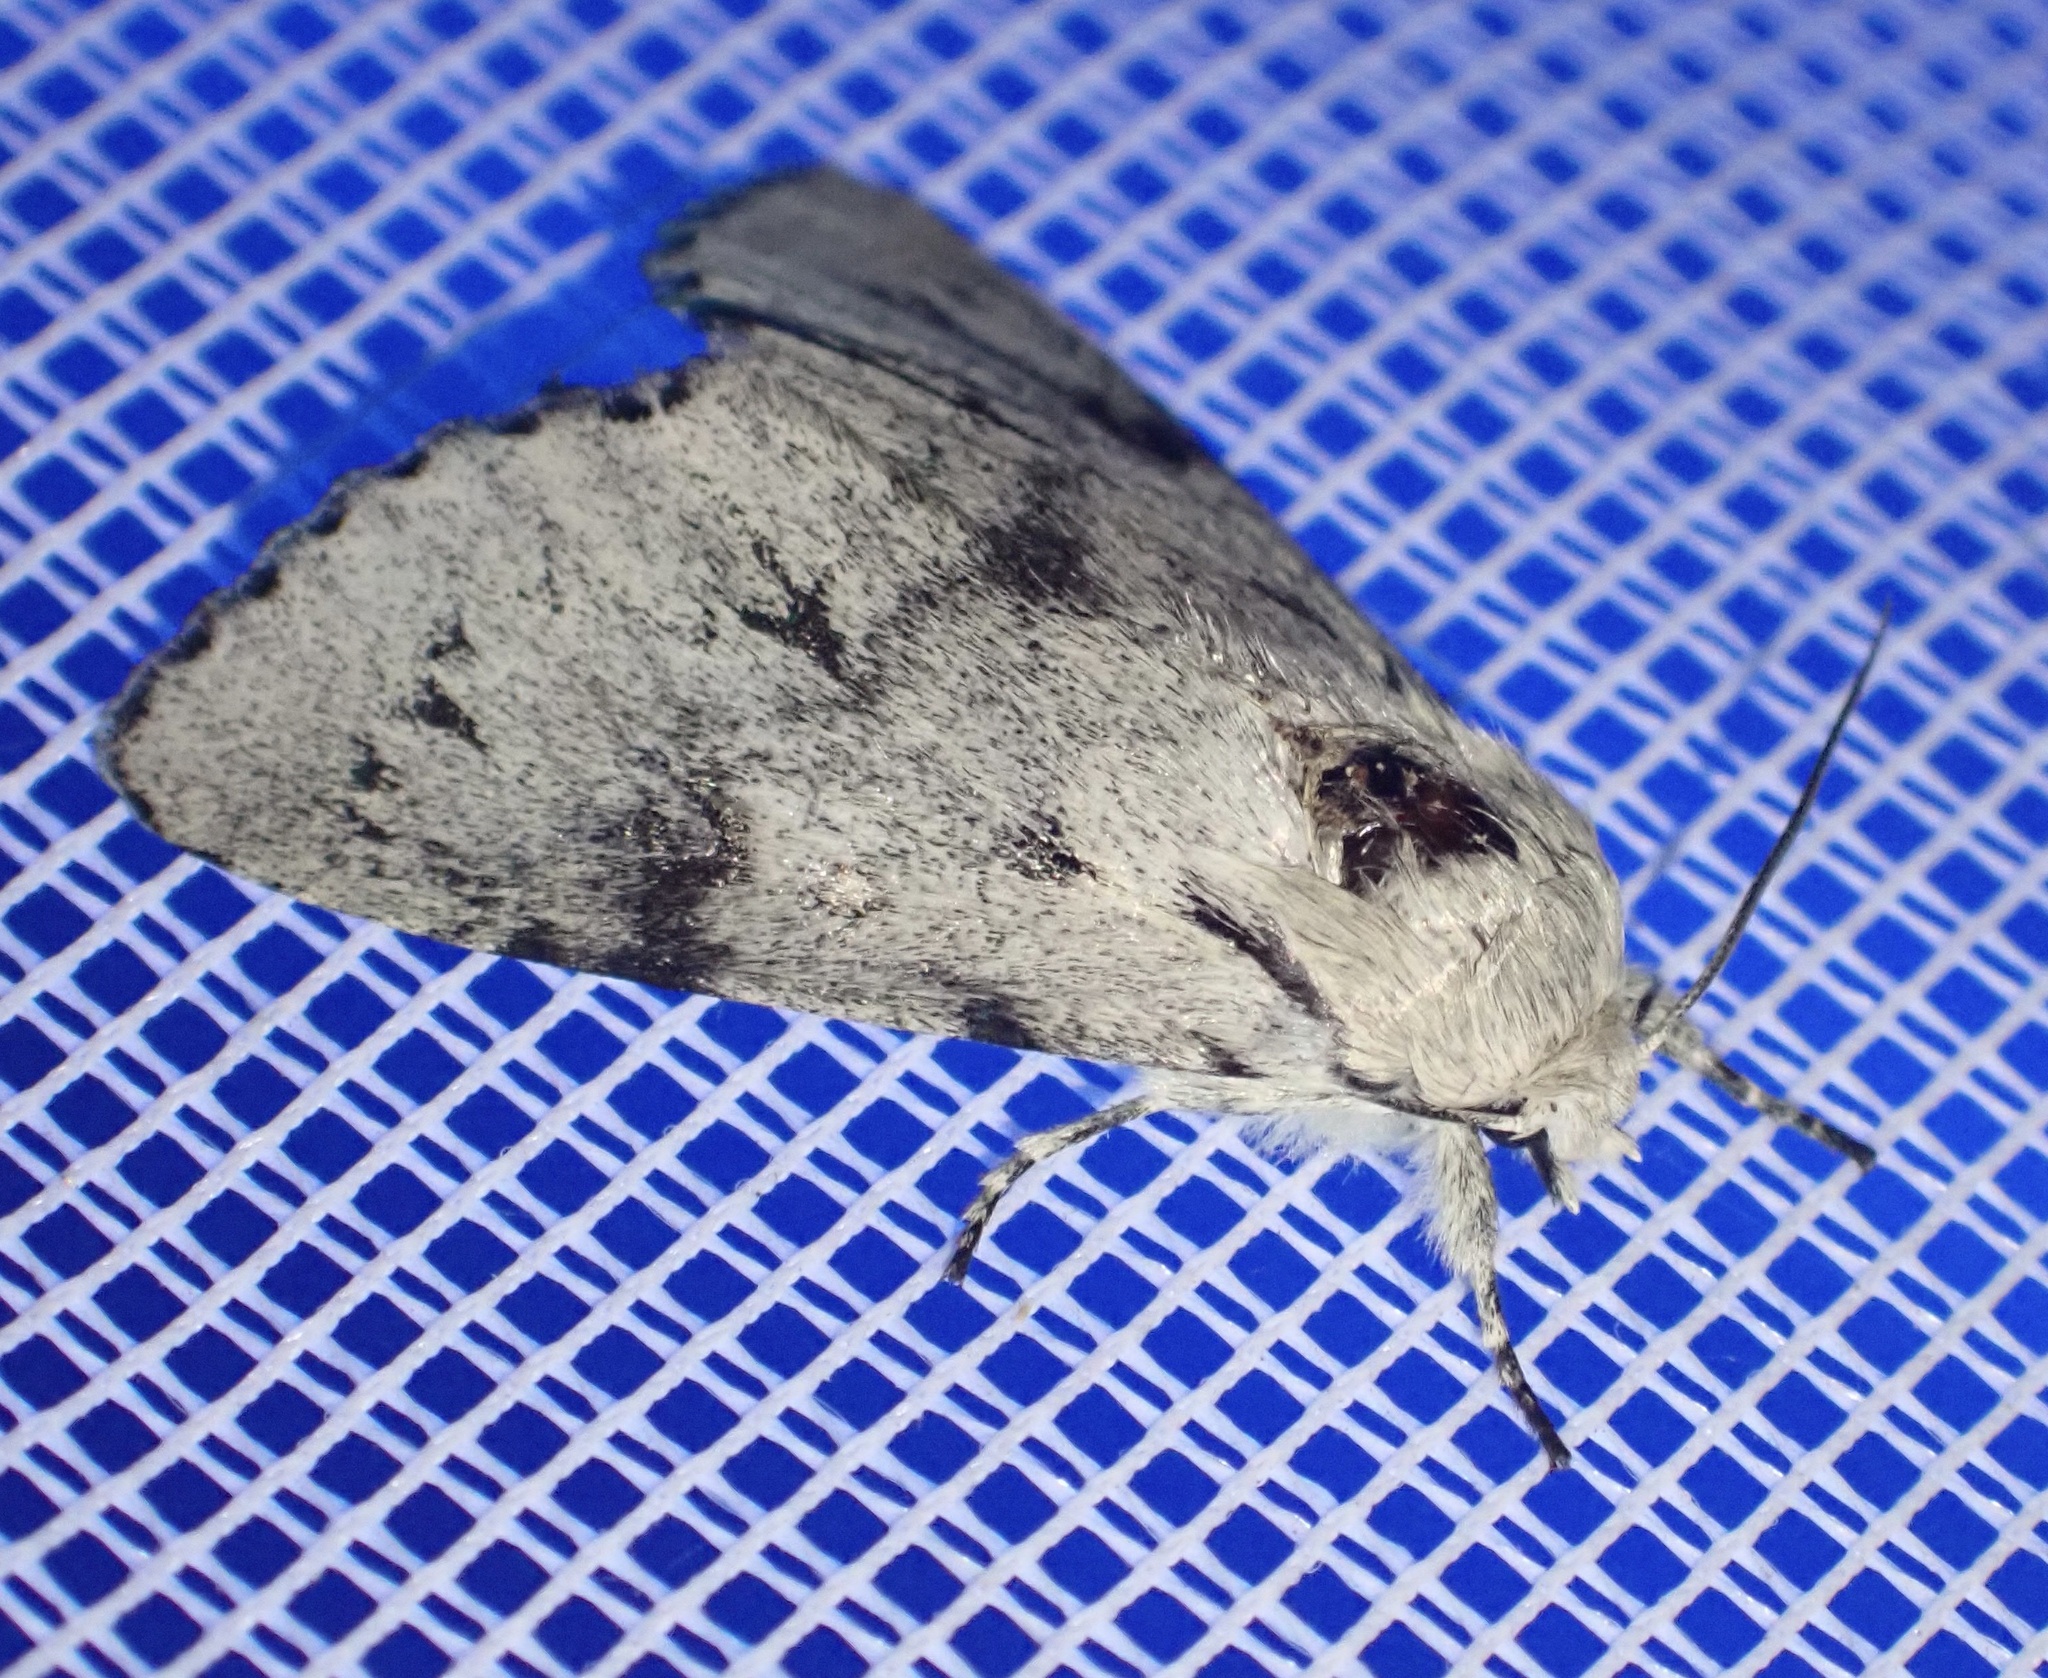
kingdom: Animalia
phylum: Arthropoda
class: Insecta
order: Lepidoptera
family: Noctuidae
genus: Acronicta
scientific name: Acronicta leporina
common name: Miller
